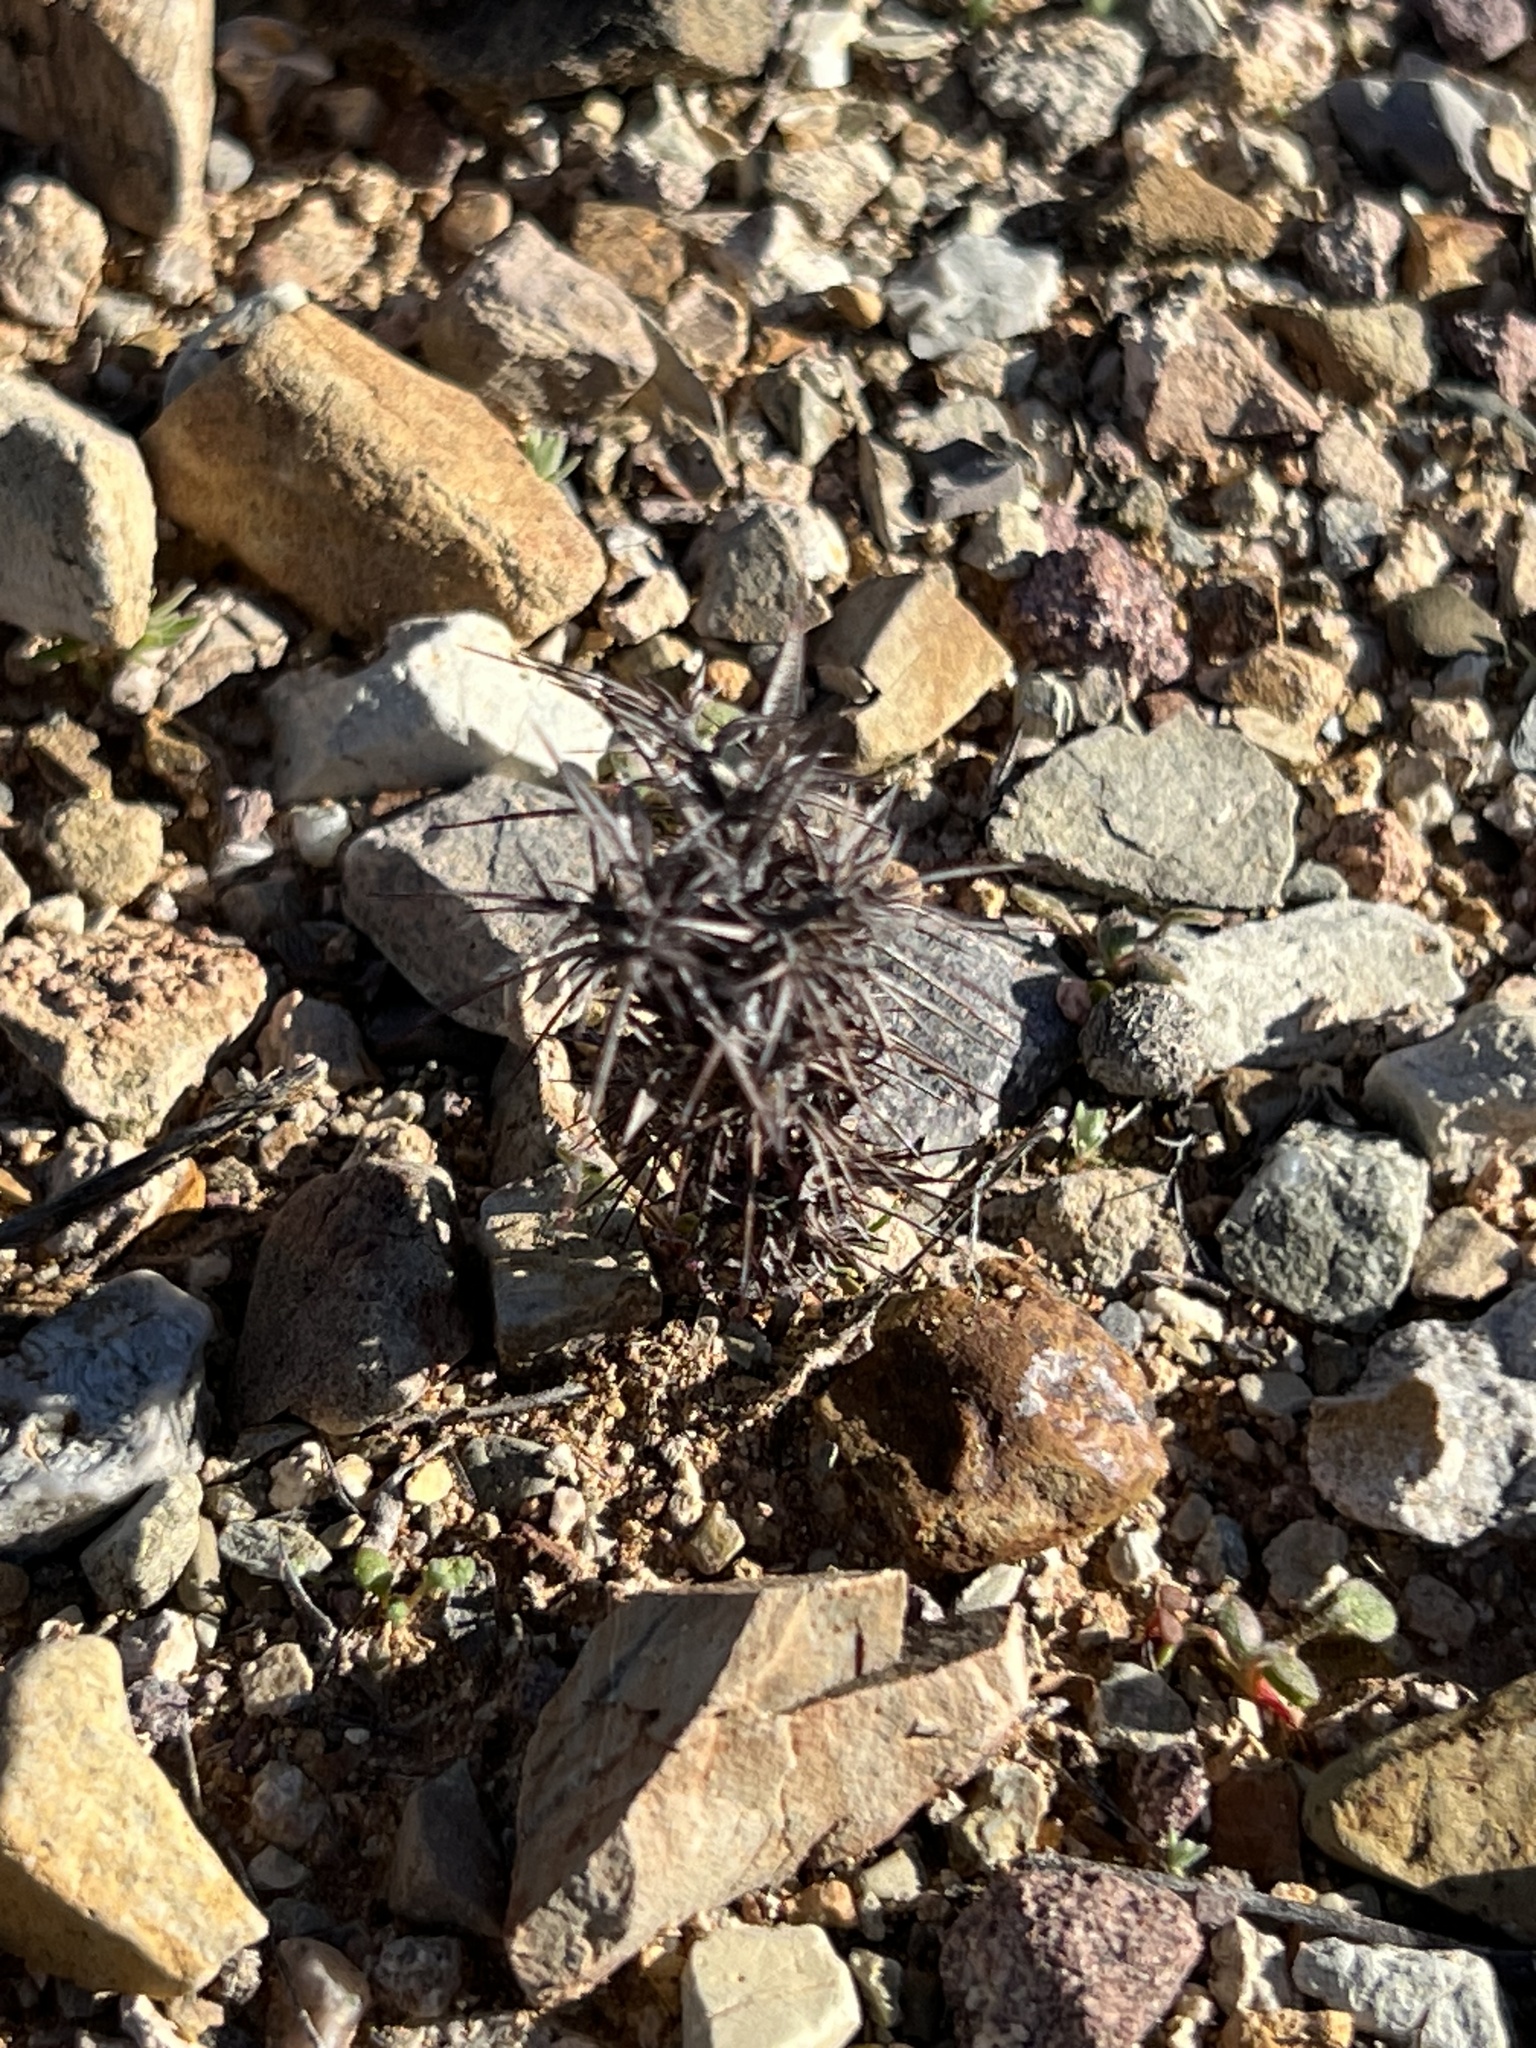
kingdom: Plantae
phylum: Tracheophyta
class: Magnoliopsida
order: Caryophyllales
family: Polygonaceae
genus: Chorizanthe
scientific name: Chorizanthe rigida
